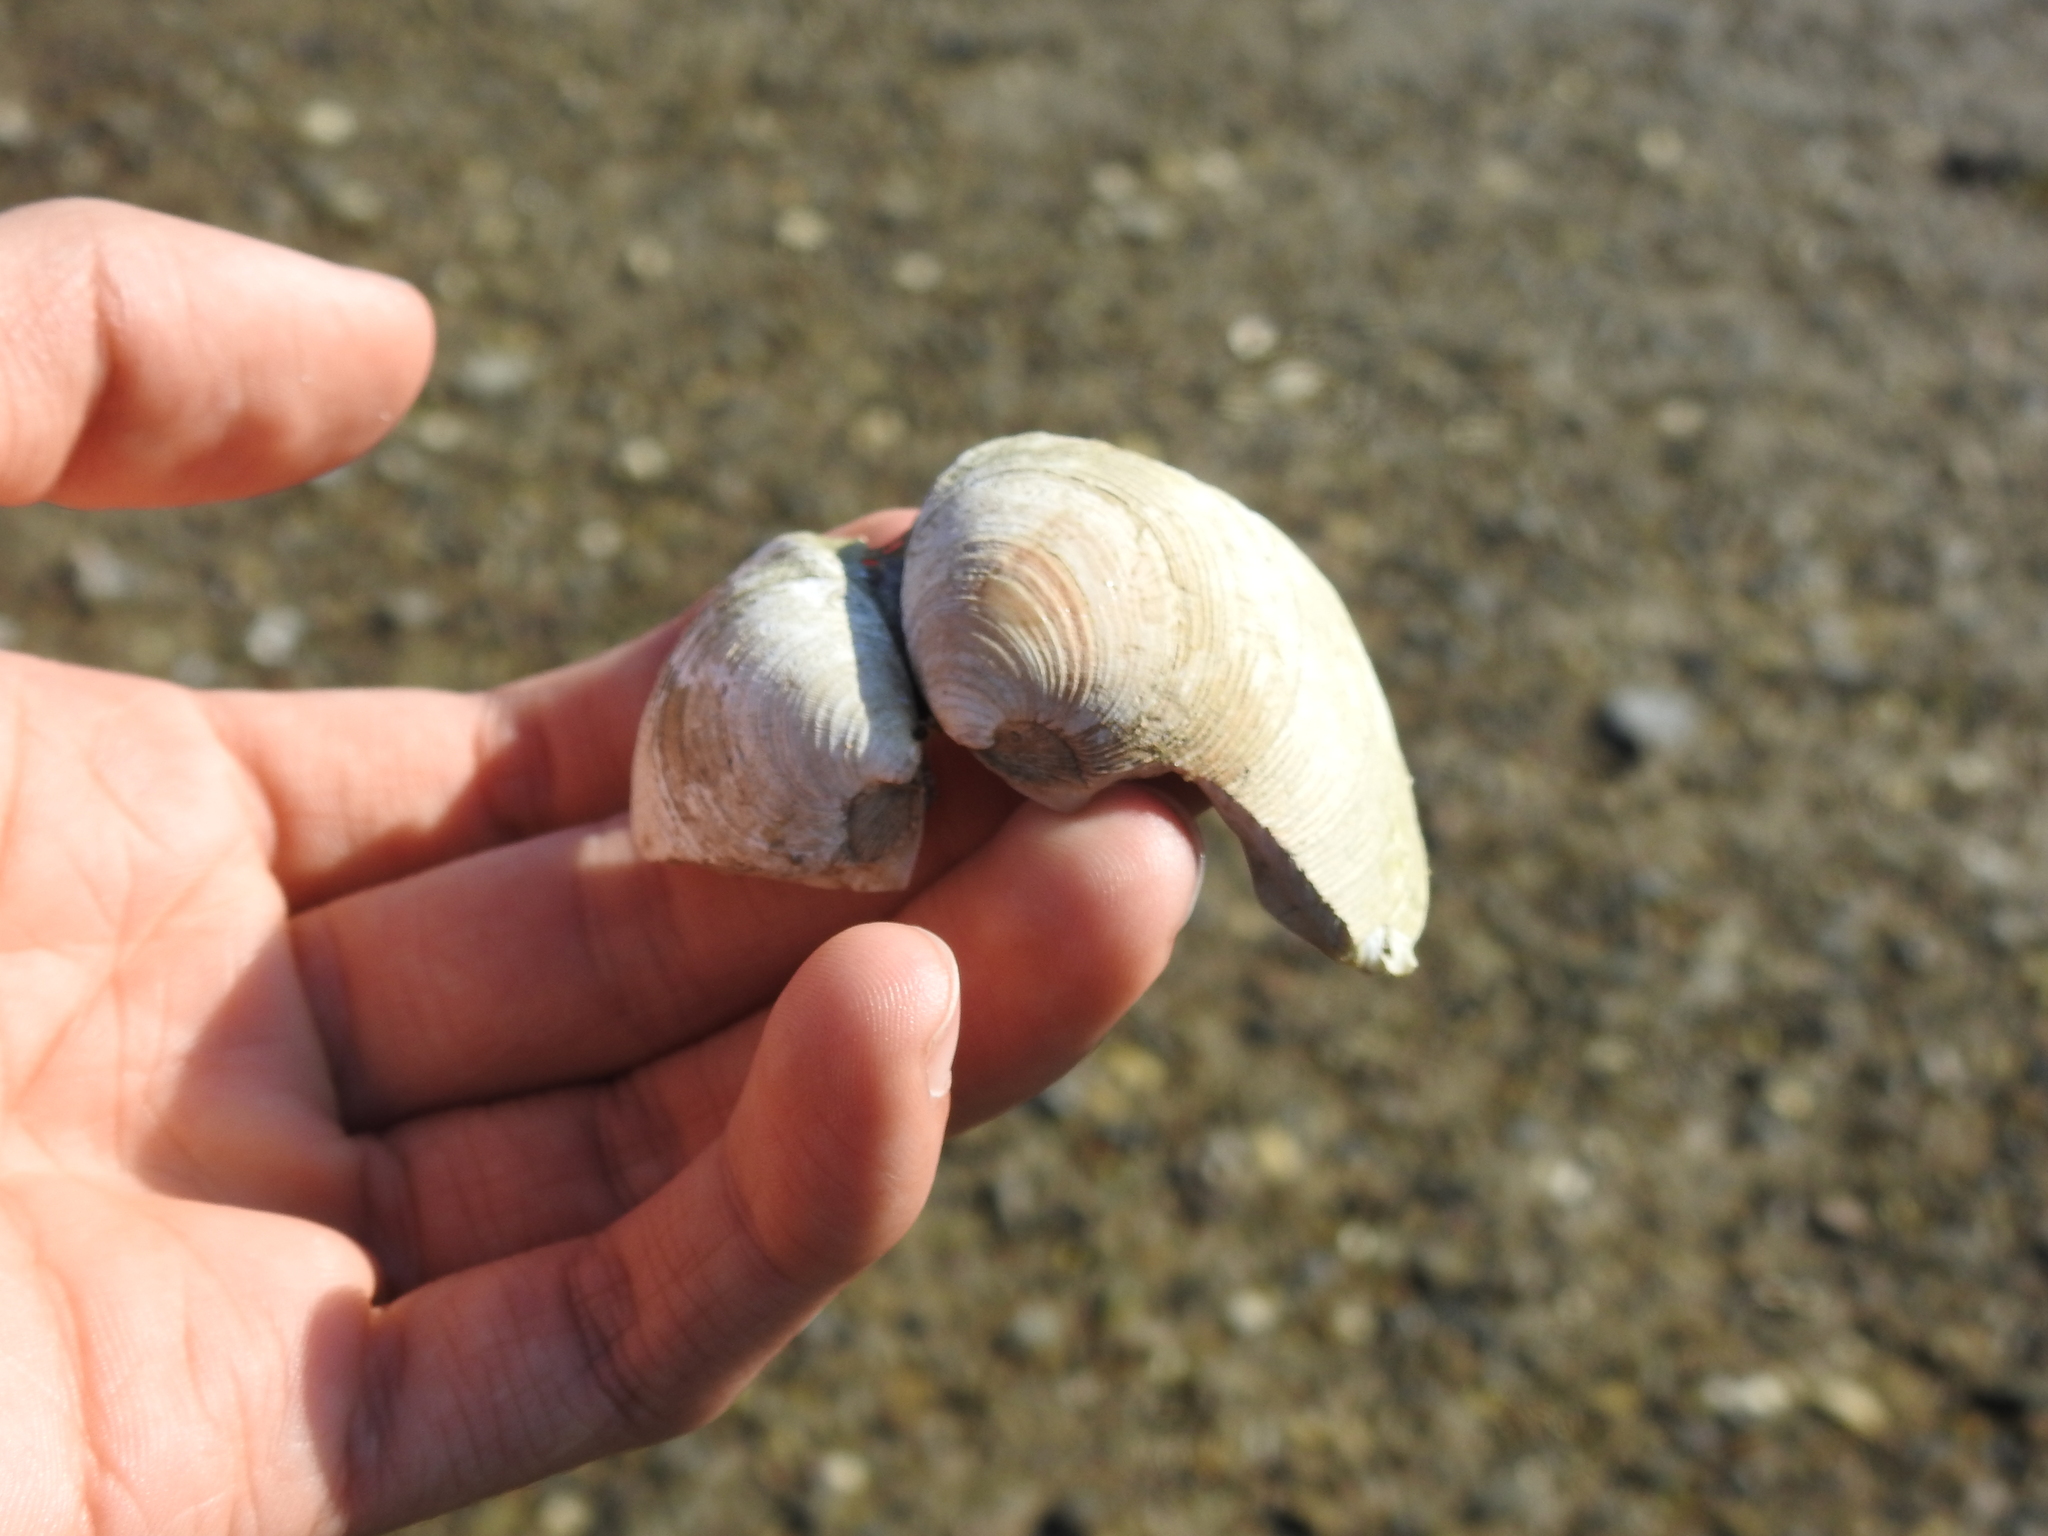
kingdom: Animalia
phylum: Mollusca
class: Bivalvia
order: Venerida
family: Veneridae
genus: Mercenaria
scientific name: Mercenaria mercenaria
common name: American hard-shelled clam
